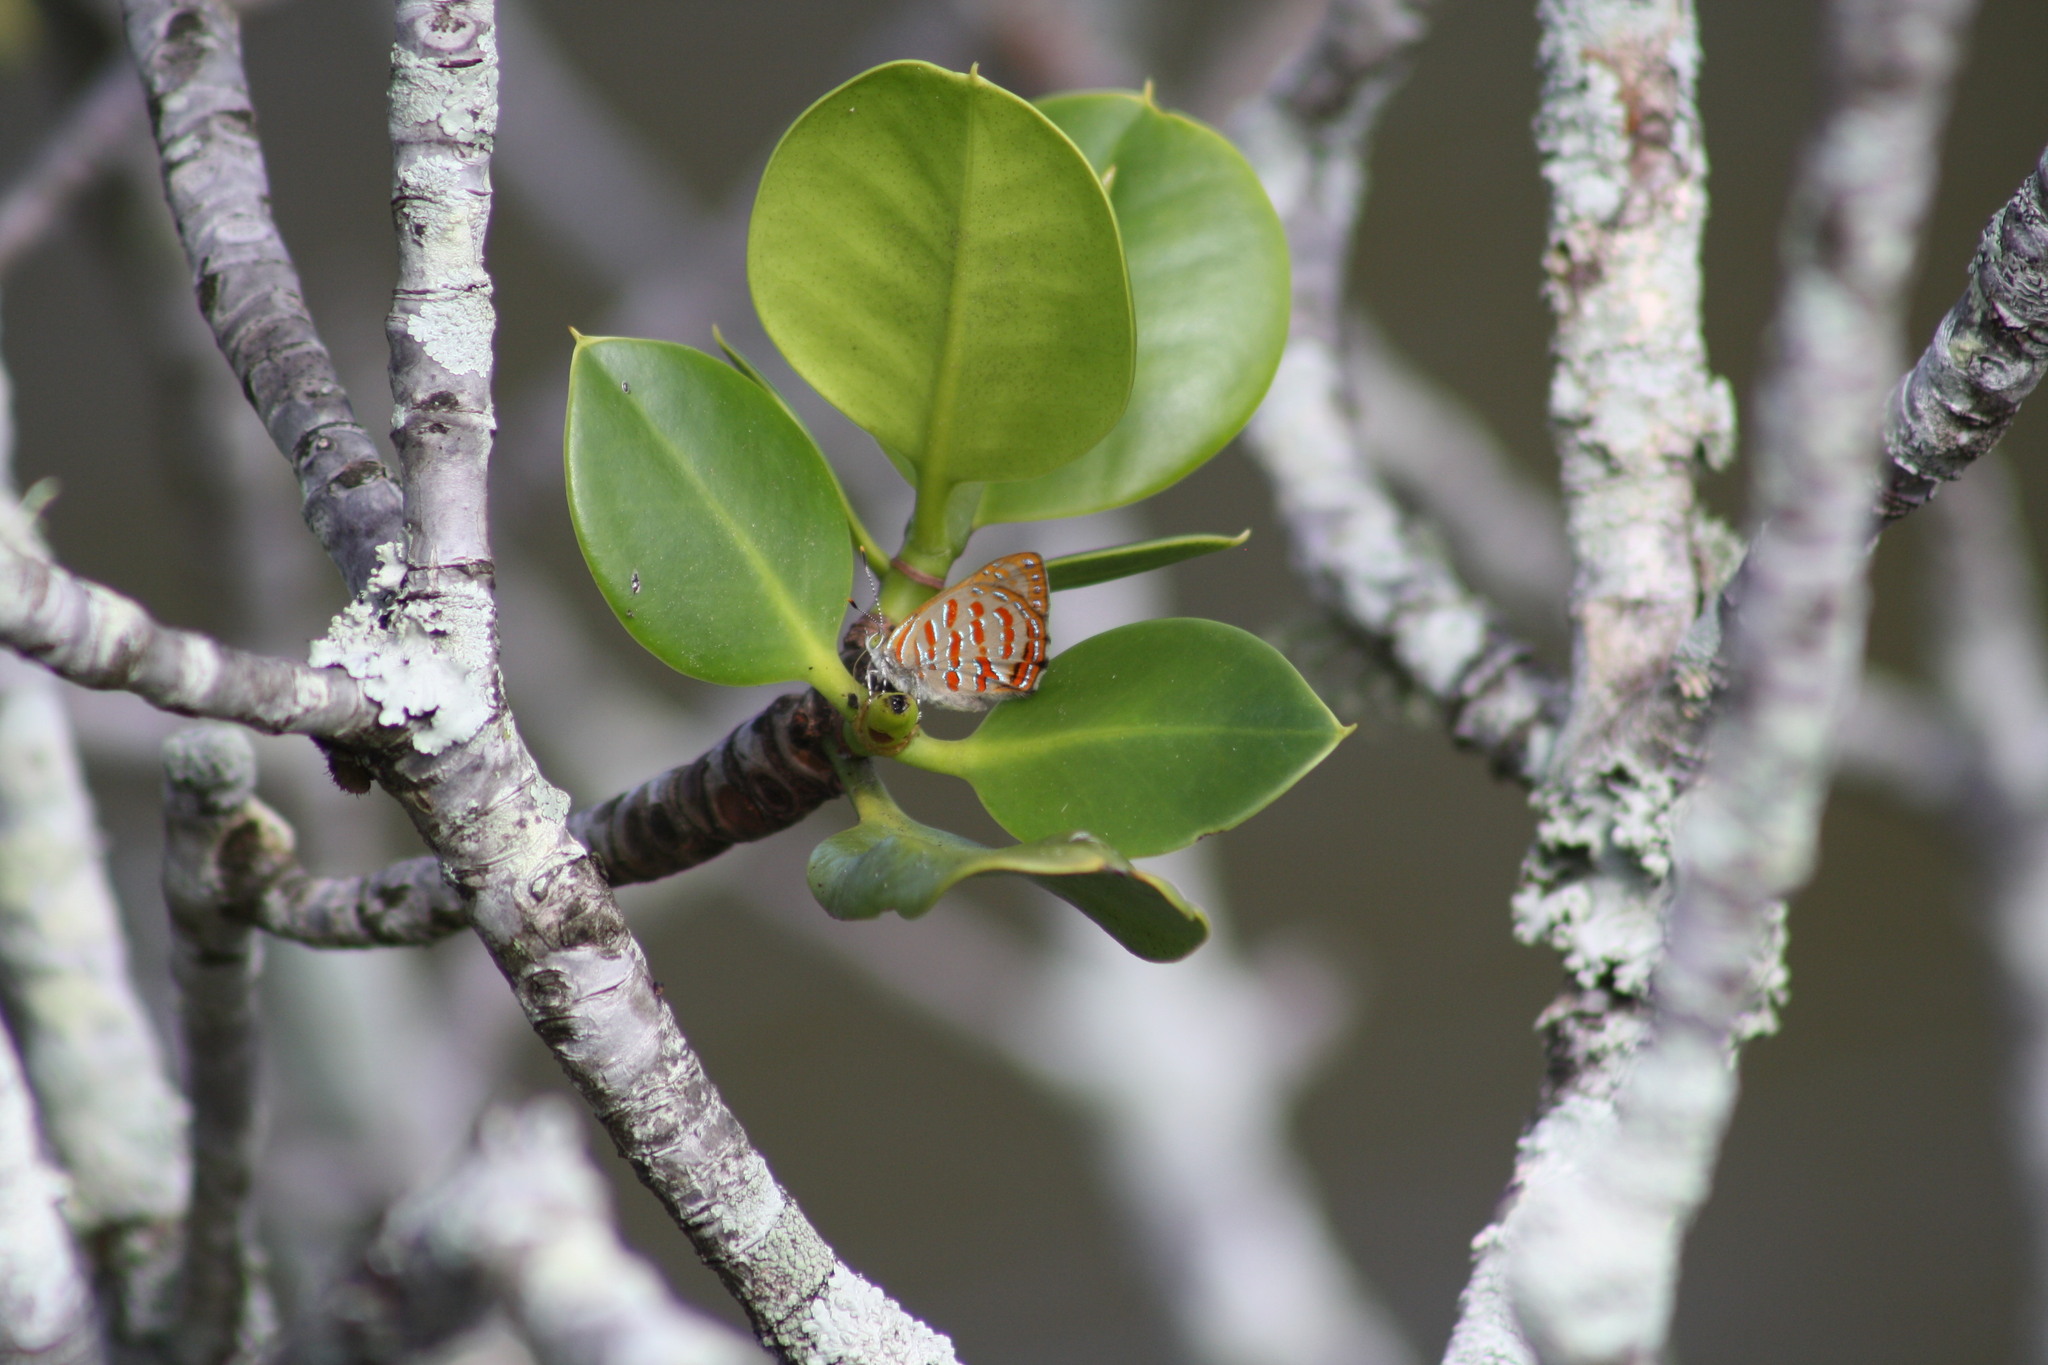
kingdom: Animalia
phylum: Arthropoda
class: Insecta
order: Lepidoptera
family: Lycaenidae
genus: Hypochrysops
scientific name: Hypochrysops apelles
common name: Copper jewel
